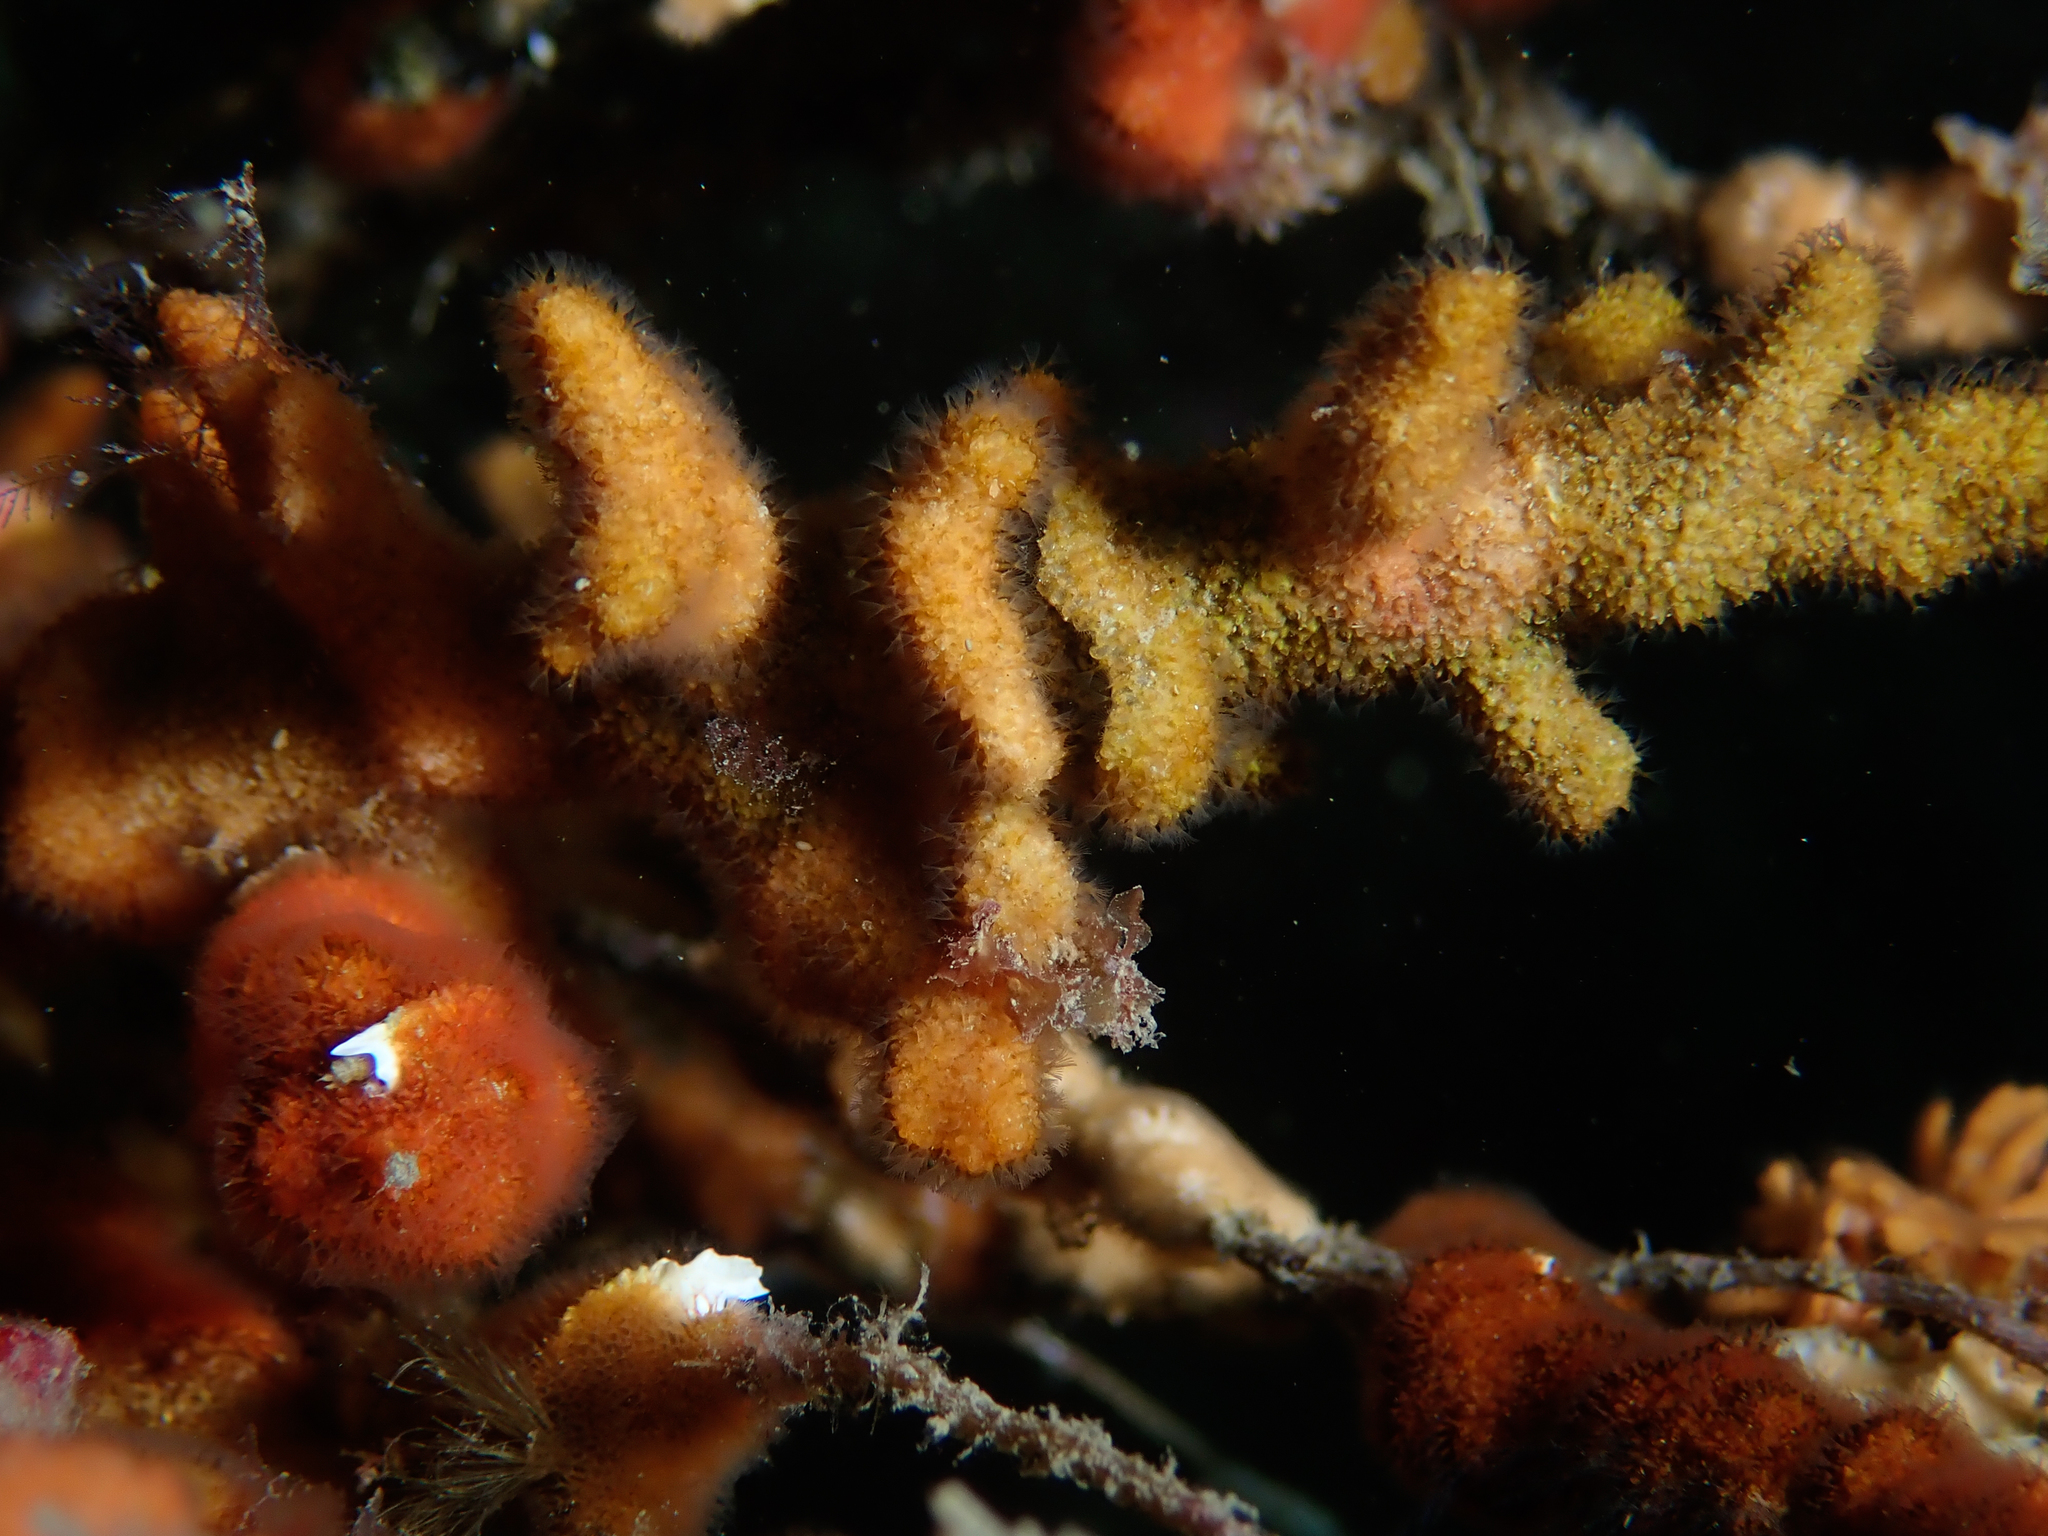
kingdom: Animalia
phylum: Bryozoa
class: Gymnolaemata
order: Cheilostomatida
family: Celleporidae
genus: Turbicellepora
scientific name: Turbicellepora avicularis
